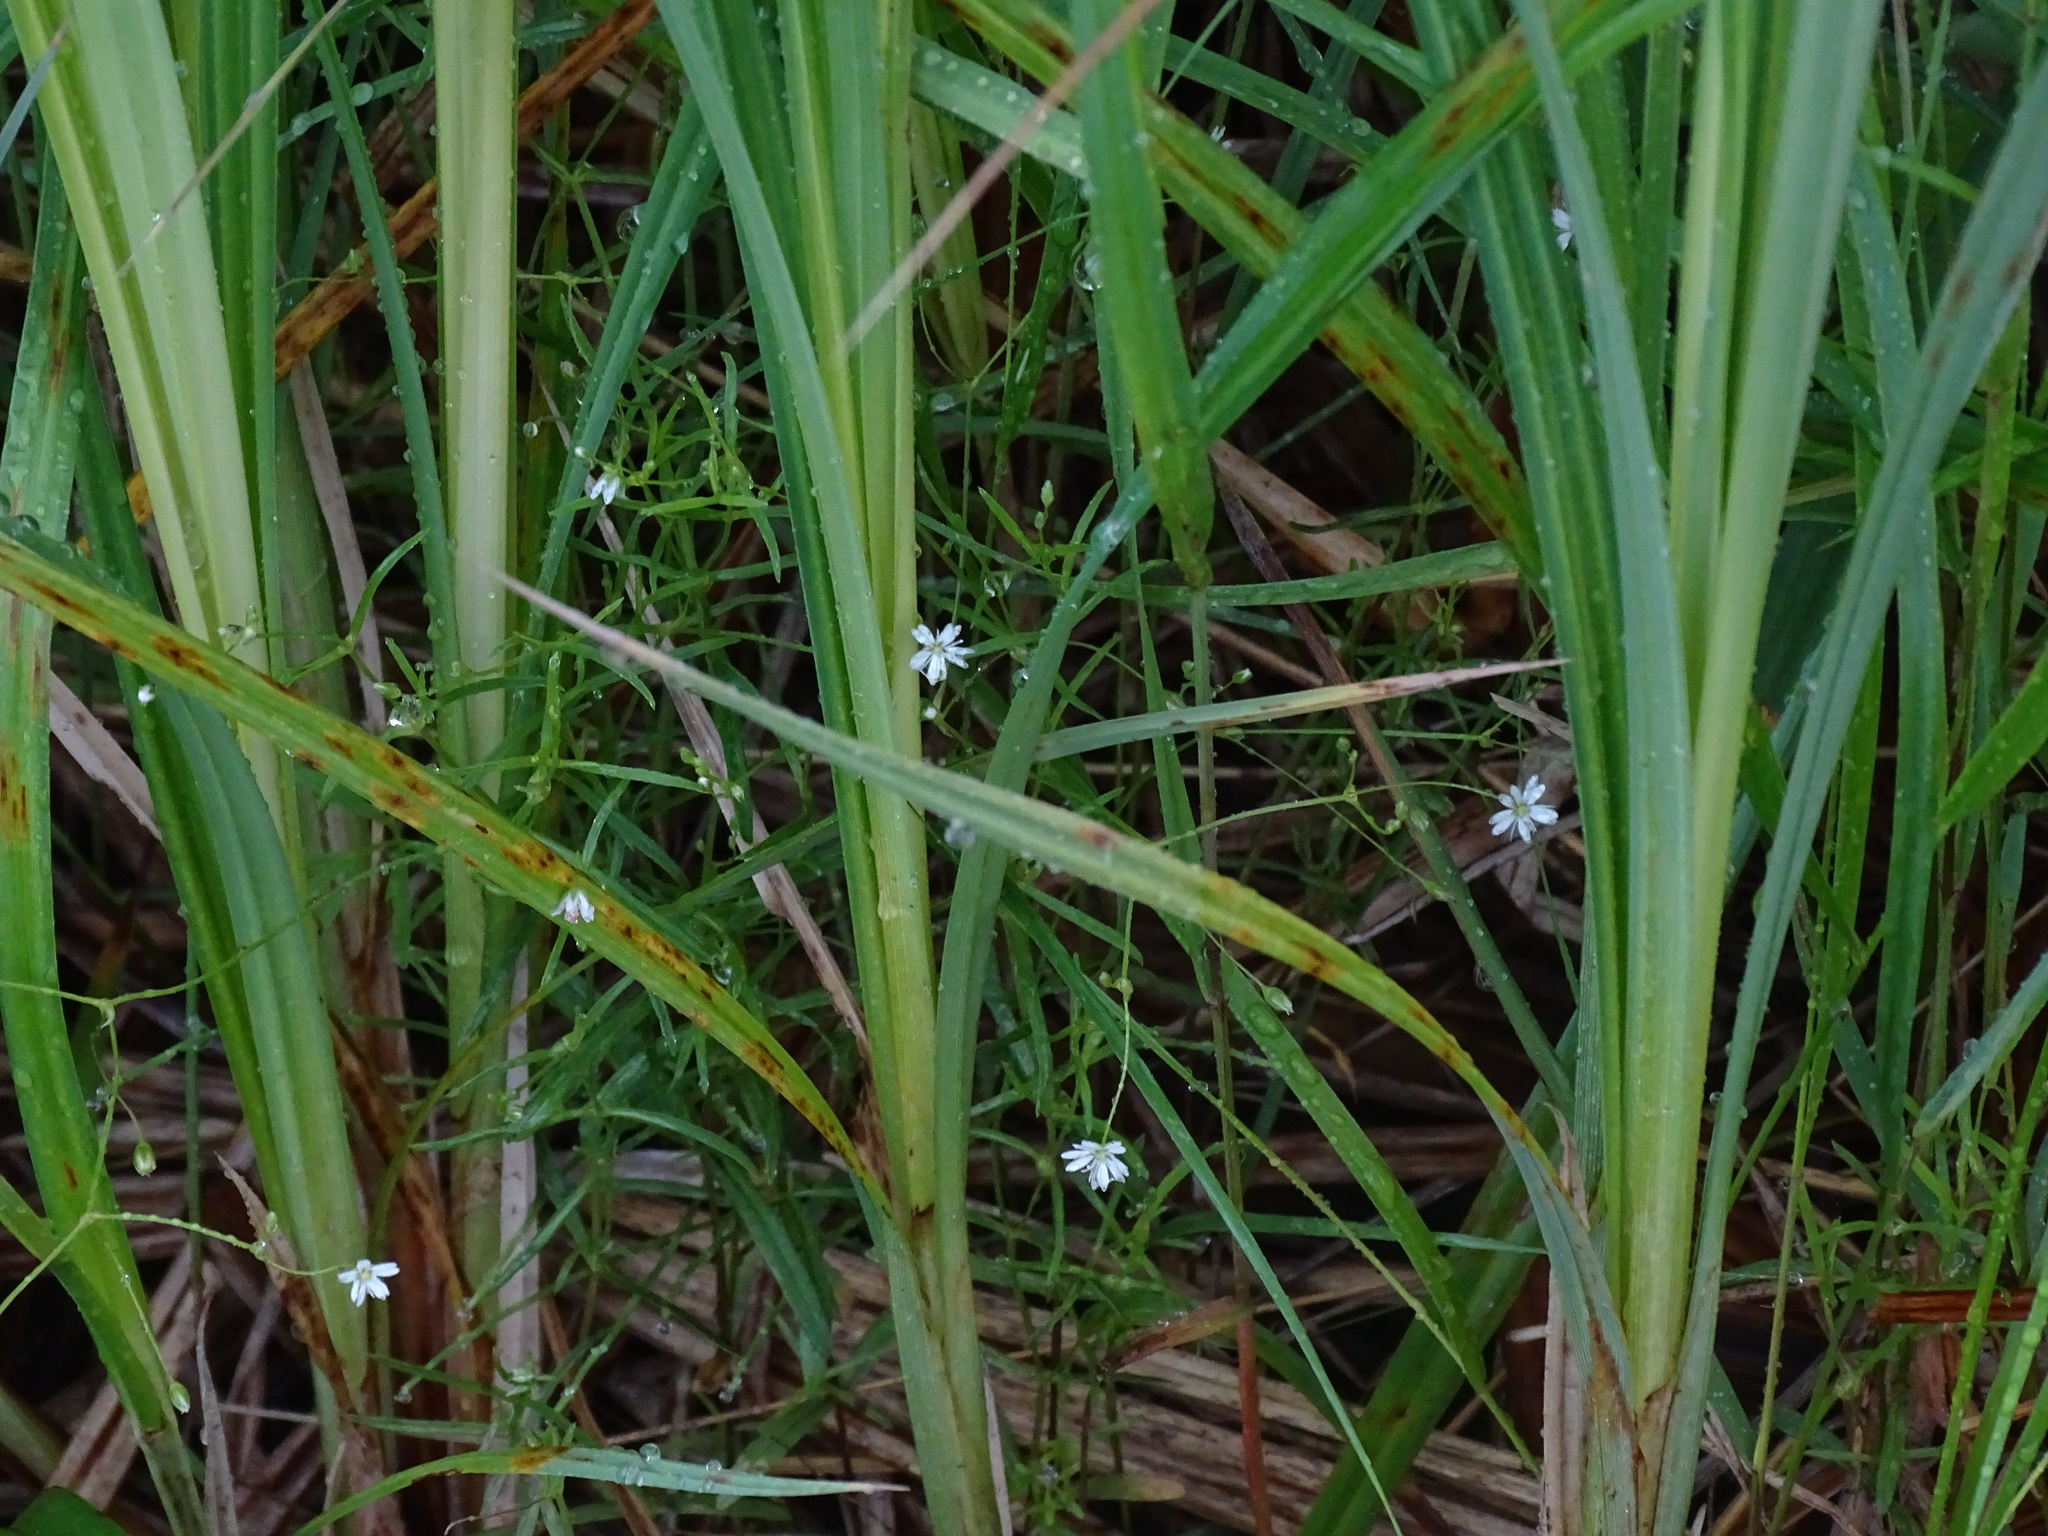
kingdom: Plantae
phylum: Tracheophyta
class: Magnoliopsida
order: Caryophyllales
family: Caryophyllaceae
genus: Stellaria
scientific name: Stellaria longifolia
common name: Long-leaved chickweed
